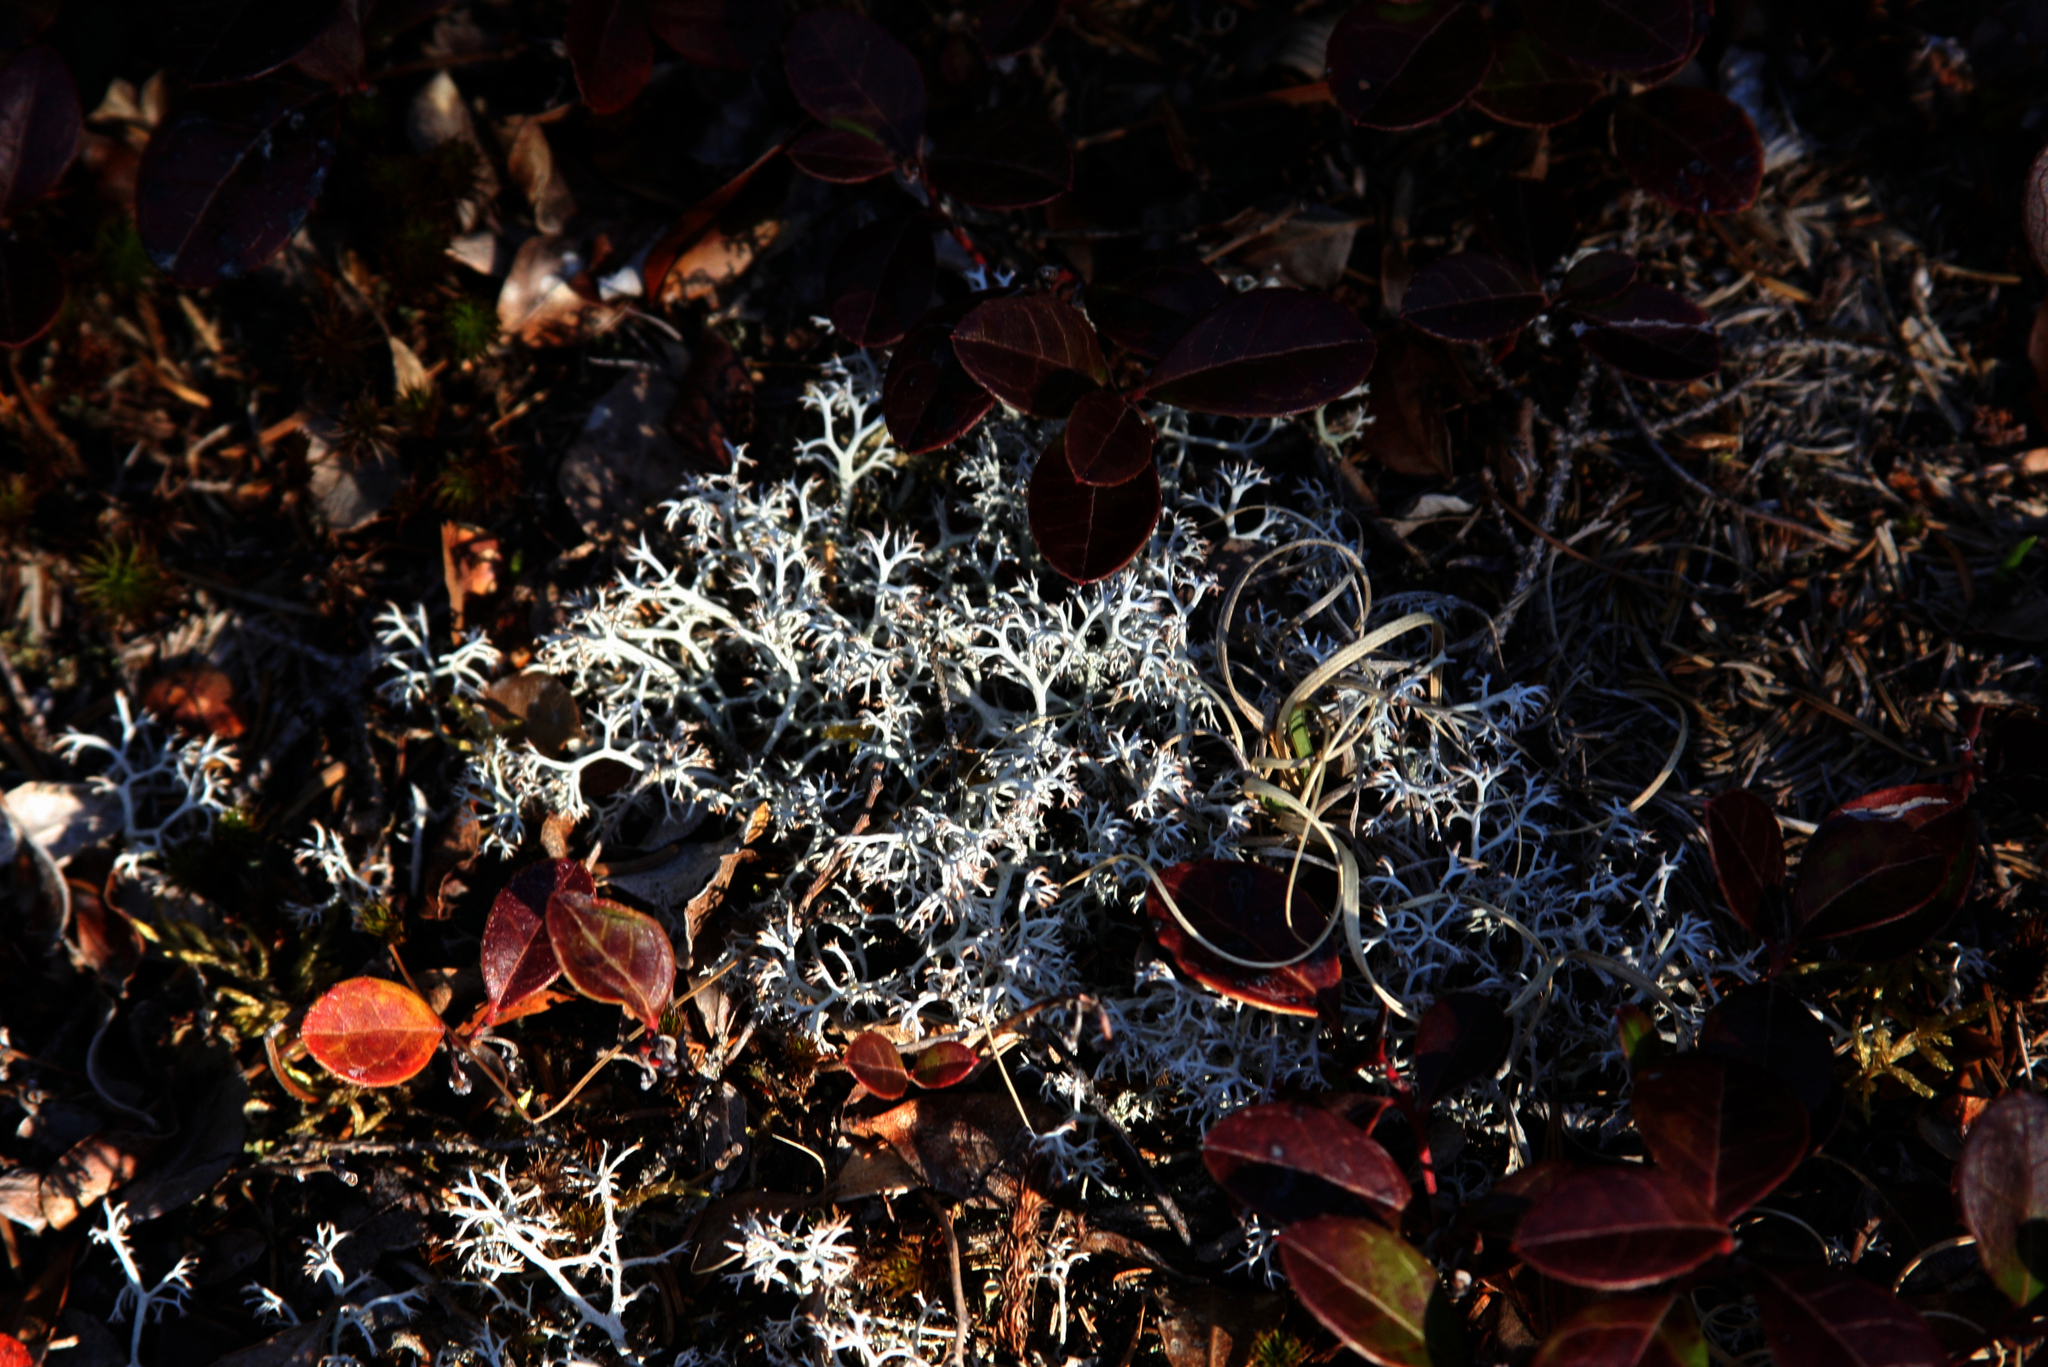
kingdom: Plantae
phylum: Tracheophyta
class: Magnoliopsida
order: Ericales
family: Ericaceae
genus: Gaultheria
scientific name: Gaultheria procumbens
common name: Checkerberry
